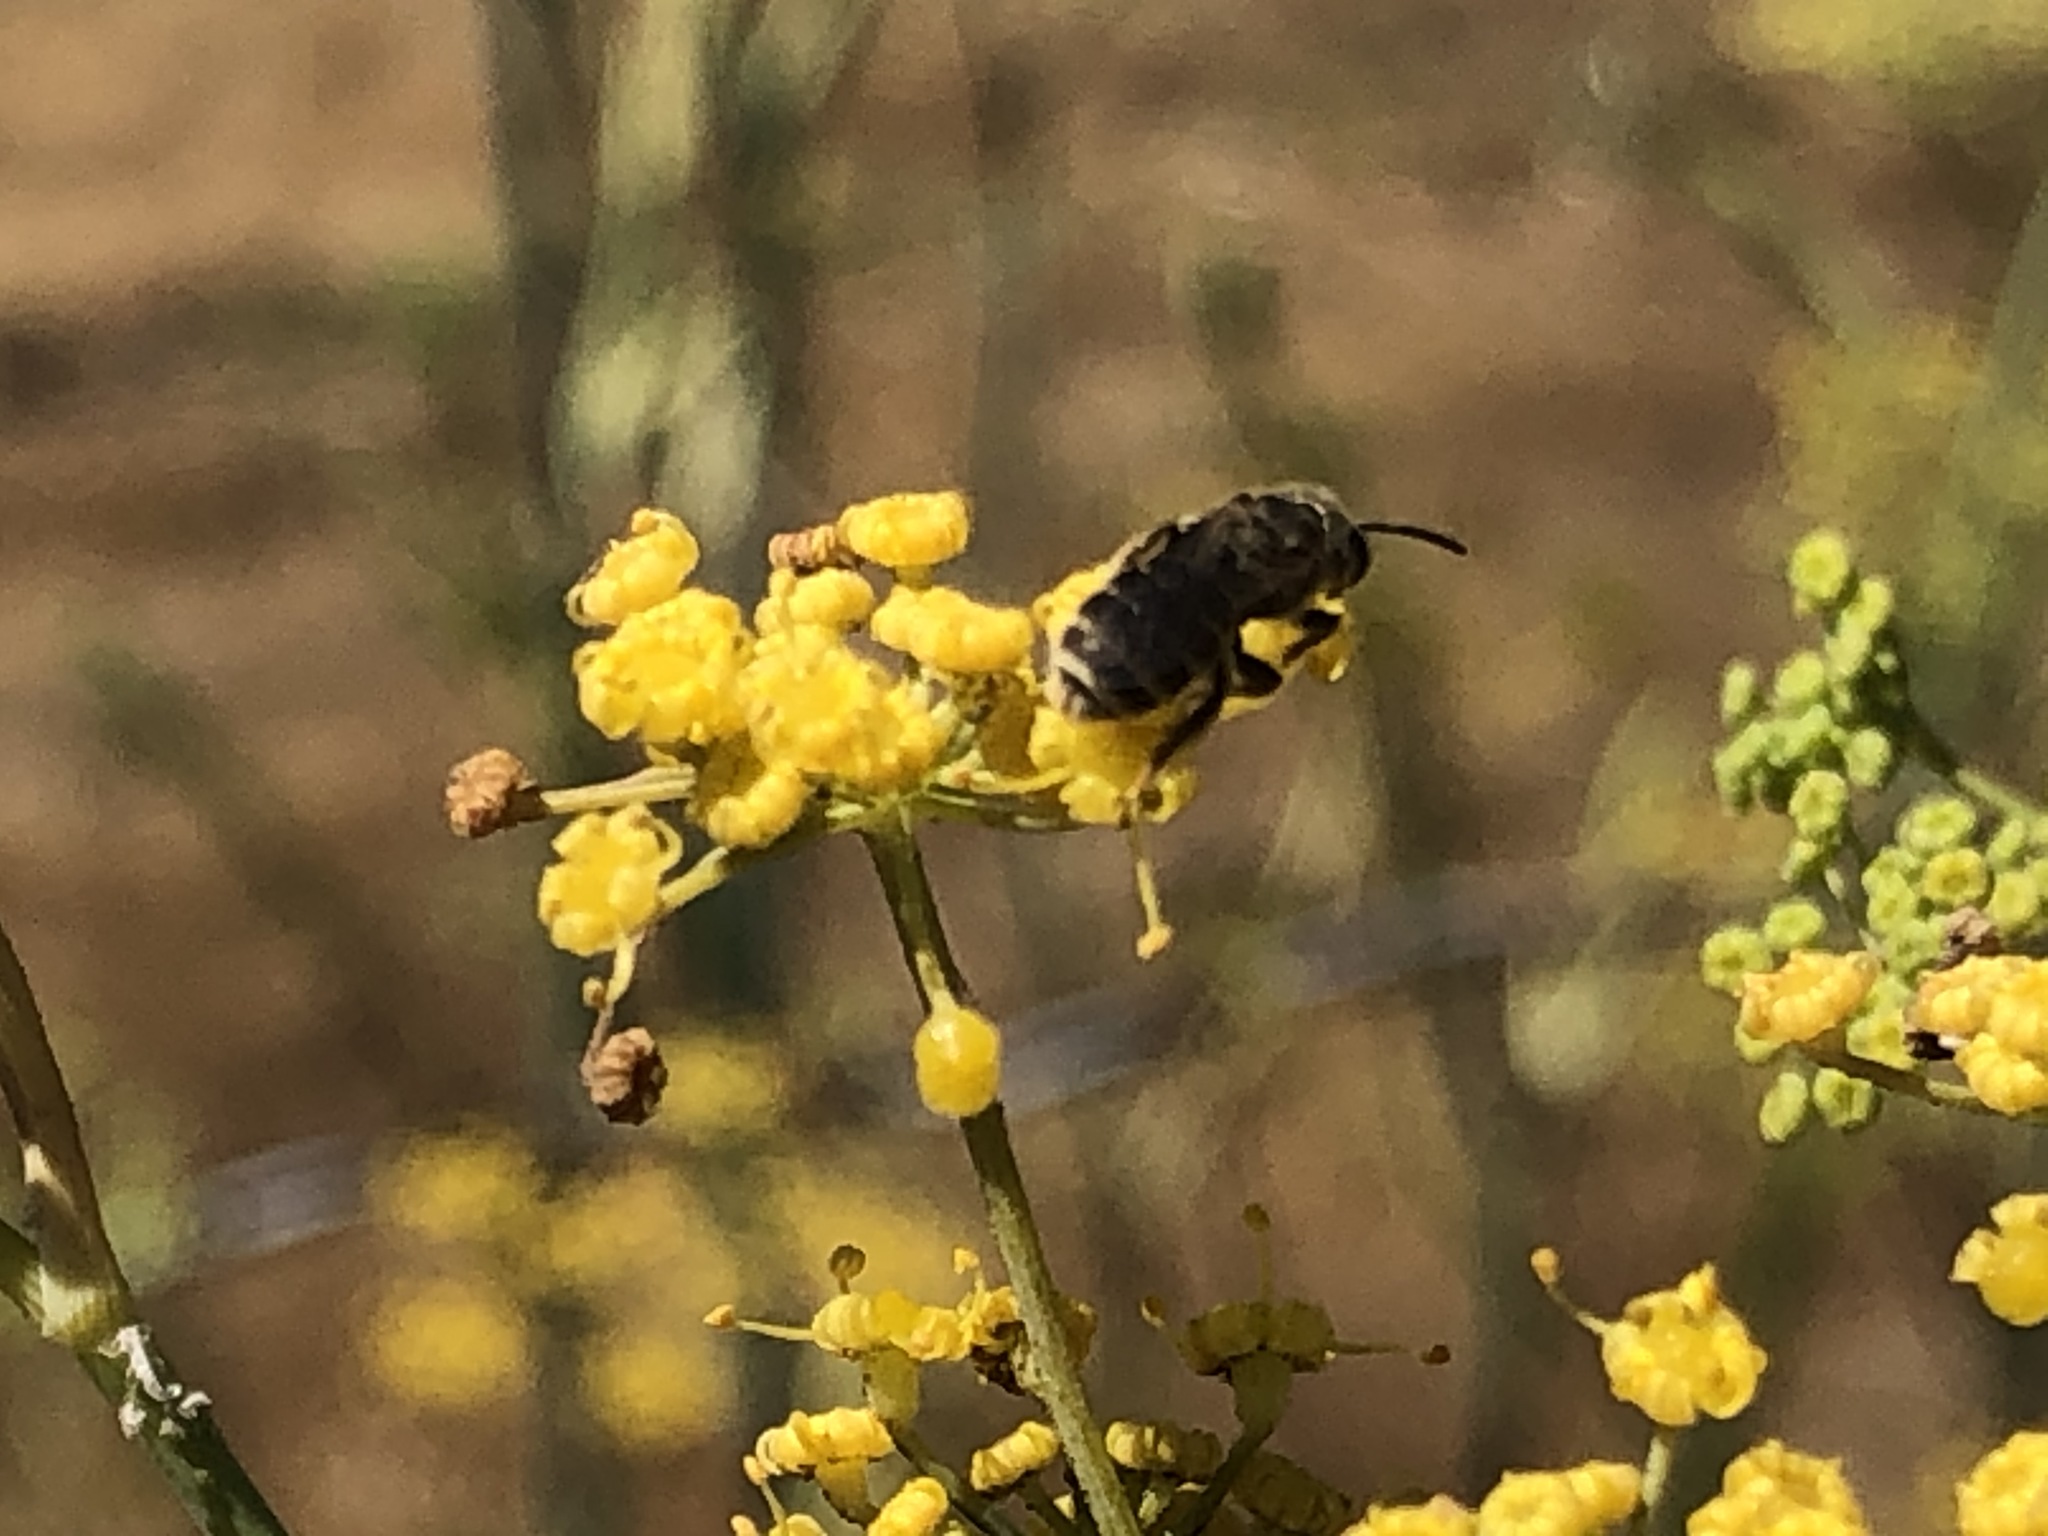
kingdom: Animalia
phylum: Arthropoda
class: Insecta
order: Hymenoptera
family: Halictidae
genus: Halictus
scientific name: Halictus tripartitus
